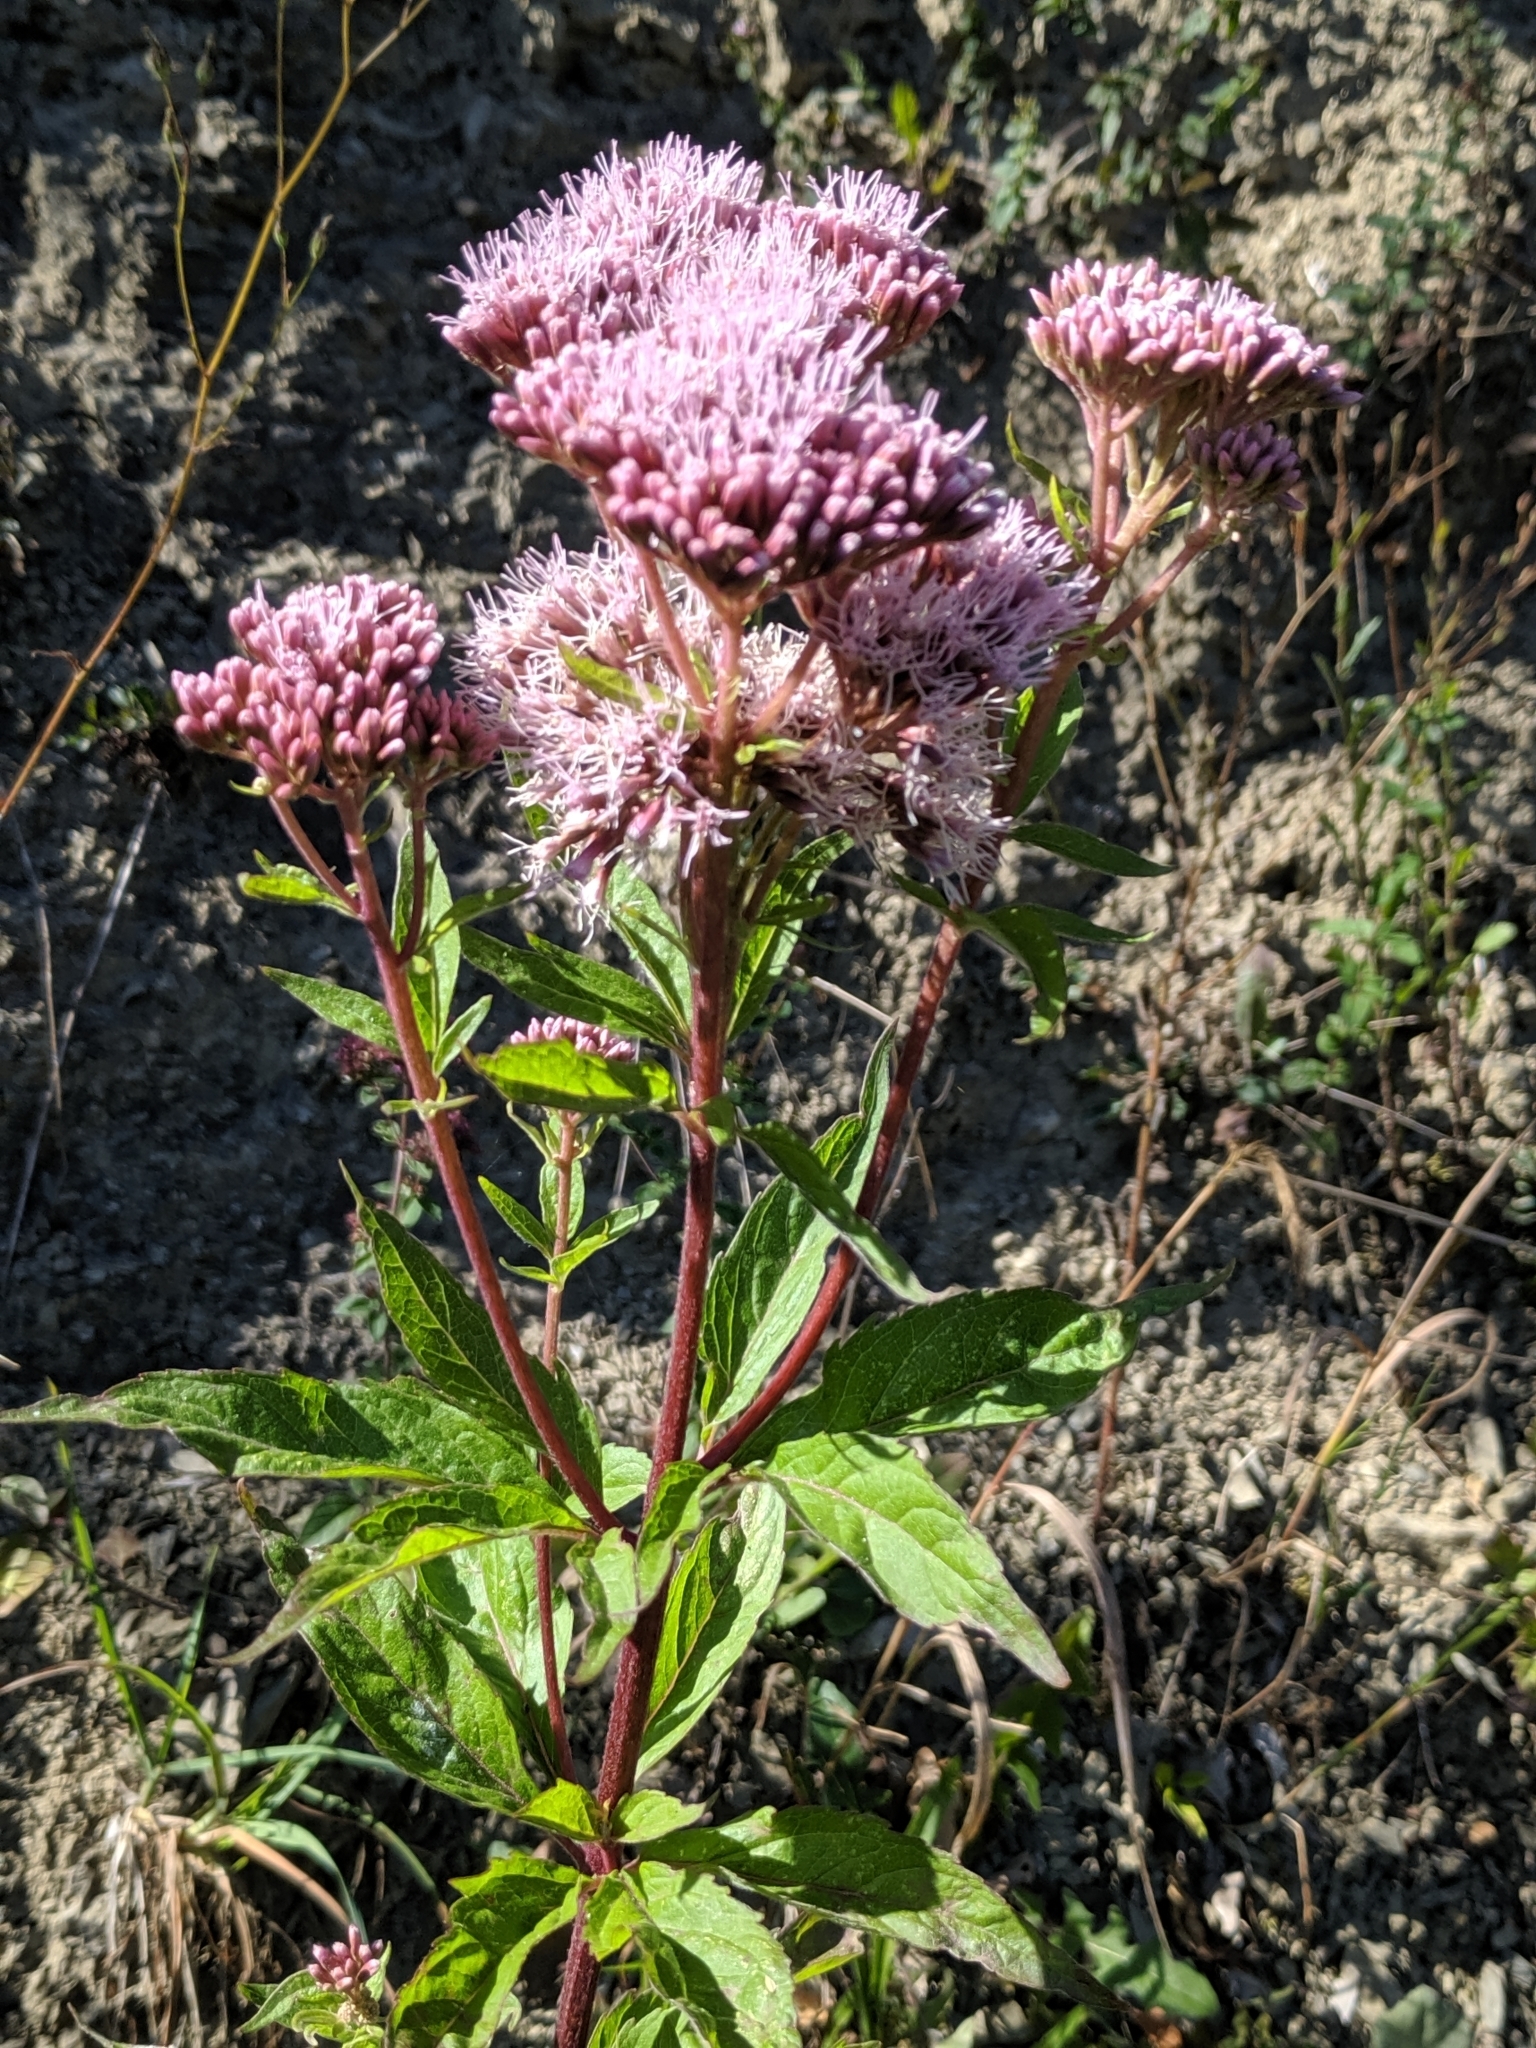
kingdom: Plantae
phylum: Tracheophyta
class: Magnoliopsida
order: Asterales
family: Asteraceae
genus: Eupatorium
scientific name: Eupatorium cannabinum
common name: Hemp-agrimony
